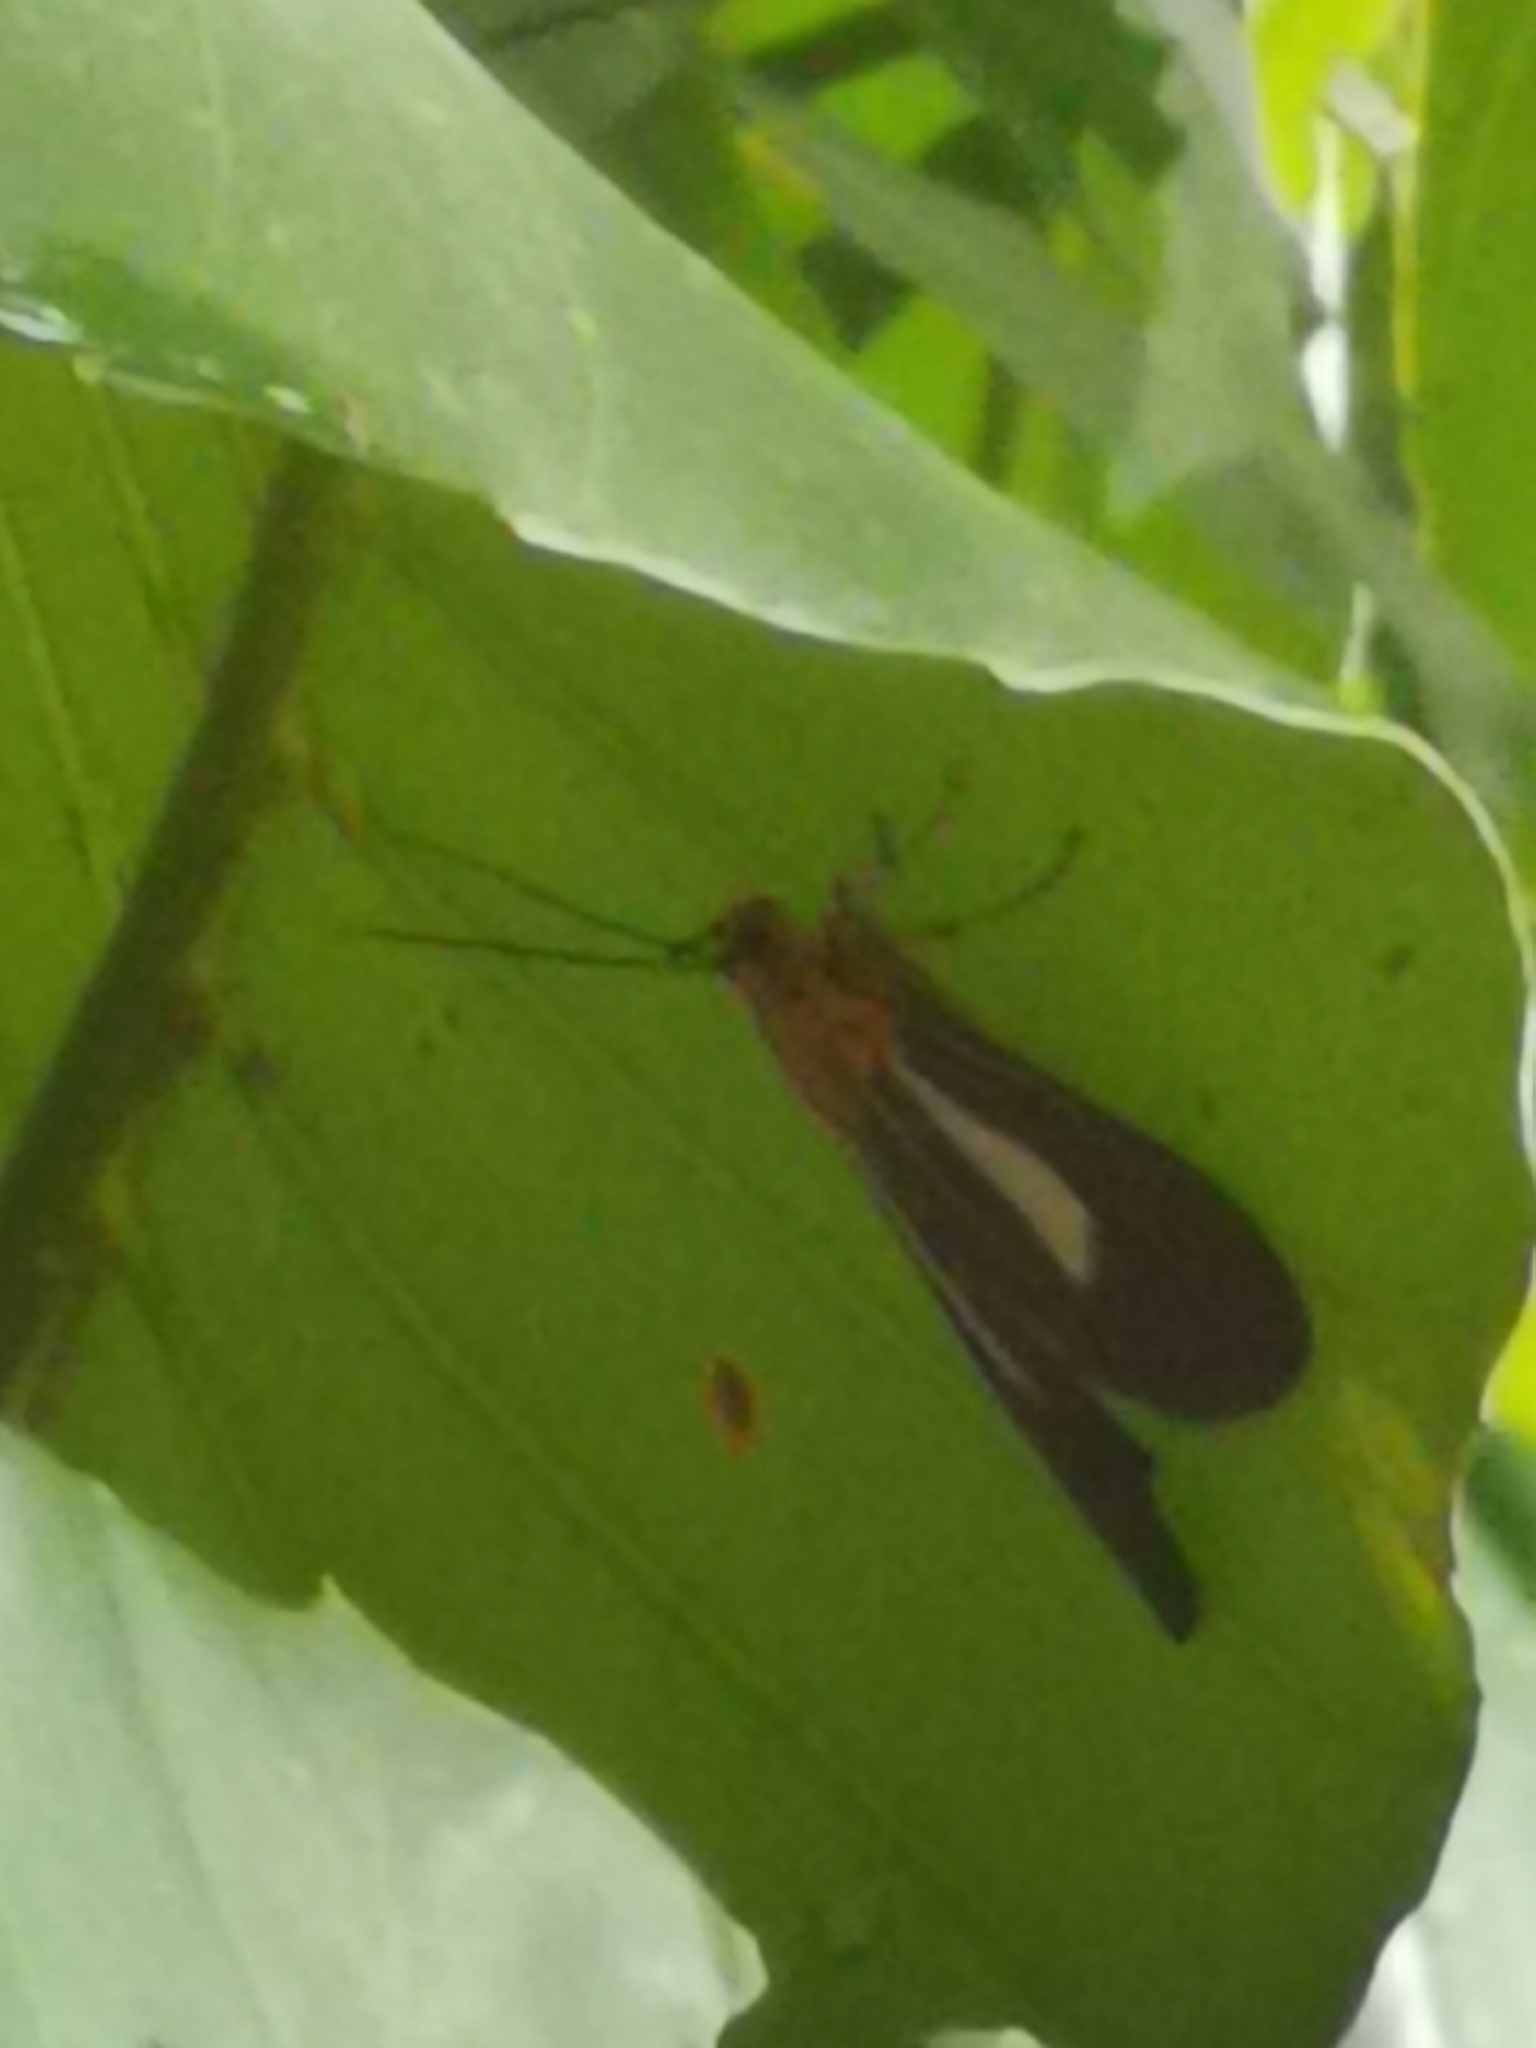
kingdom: Animalia
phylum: Arthropoda
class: Insecta
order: Lepidoptera
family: Erebidae
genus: Asota
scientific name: Asota
